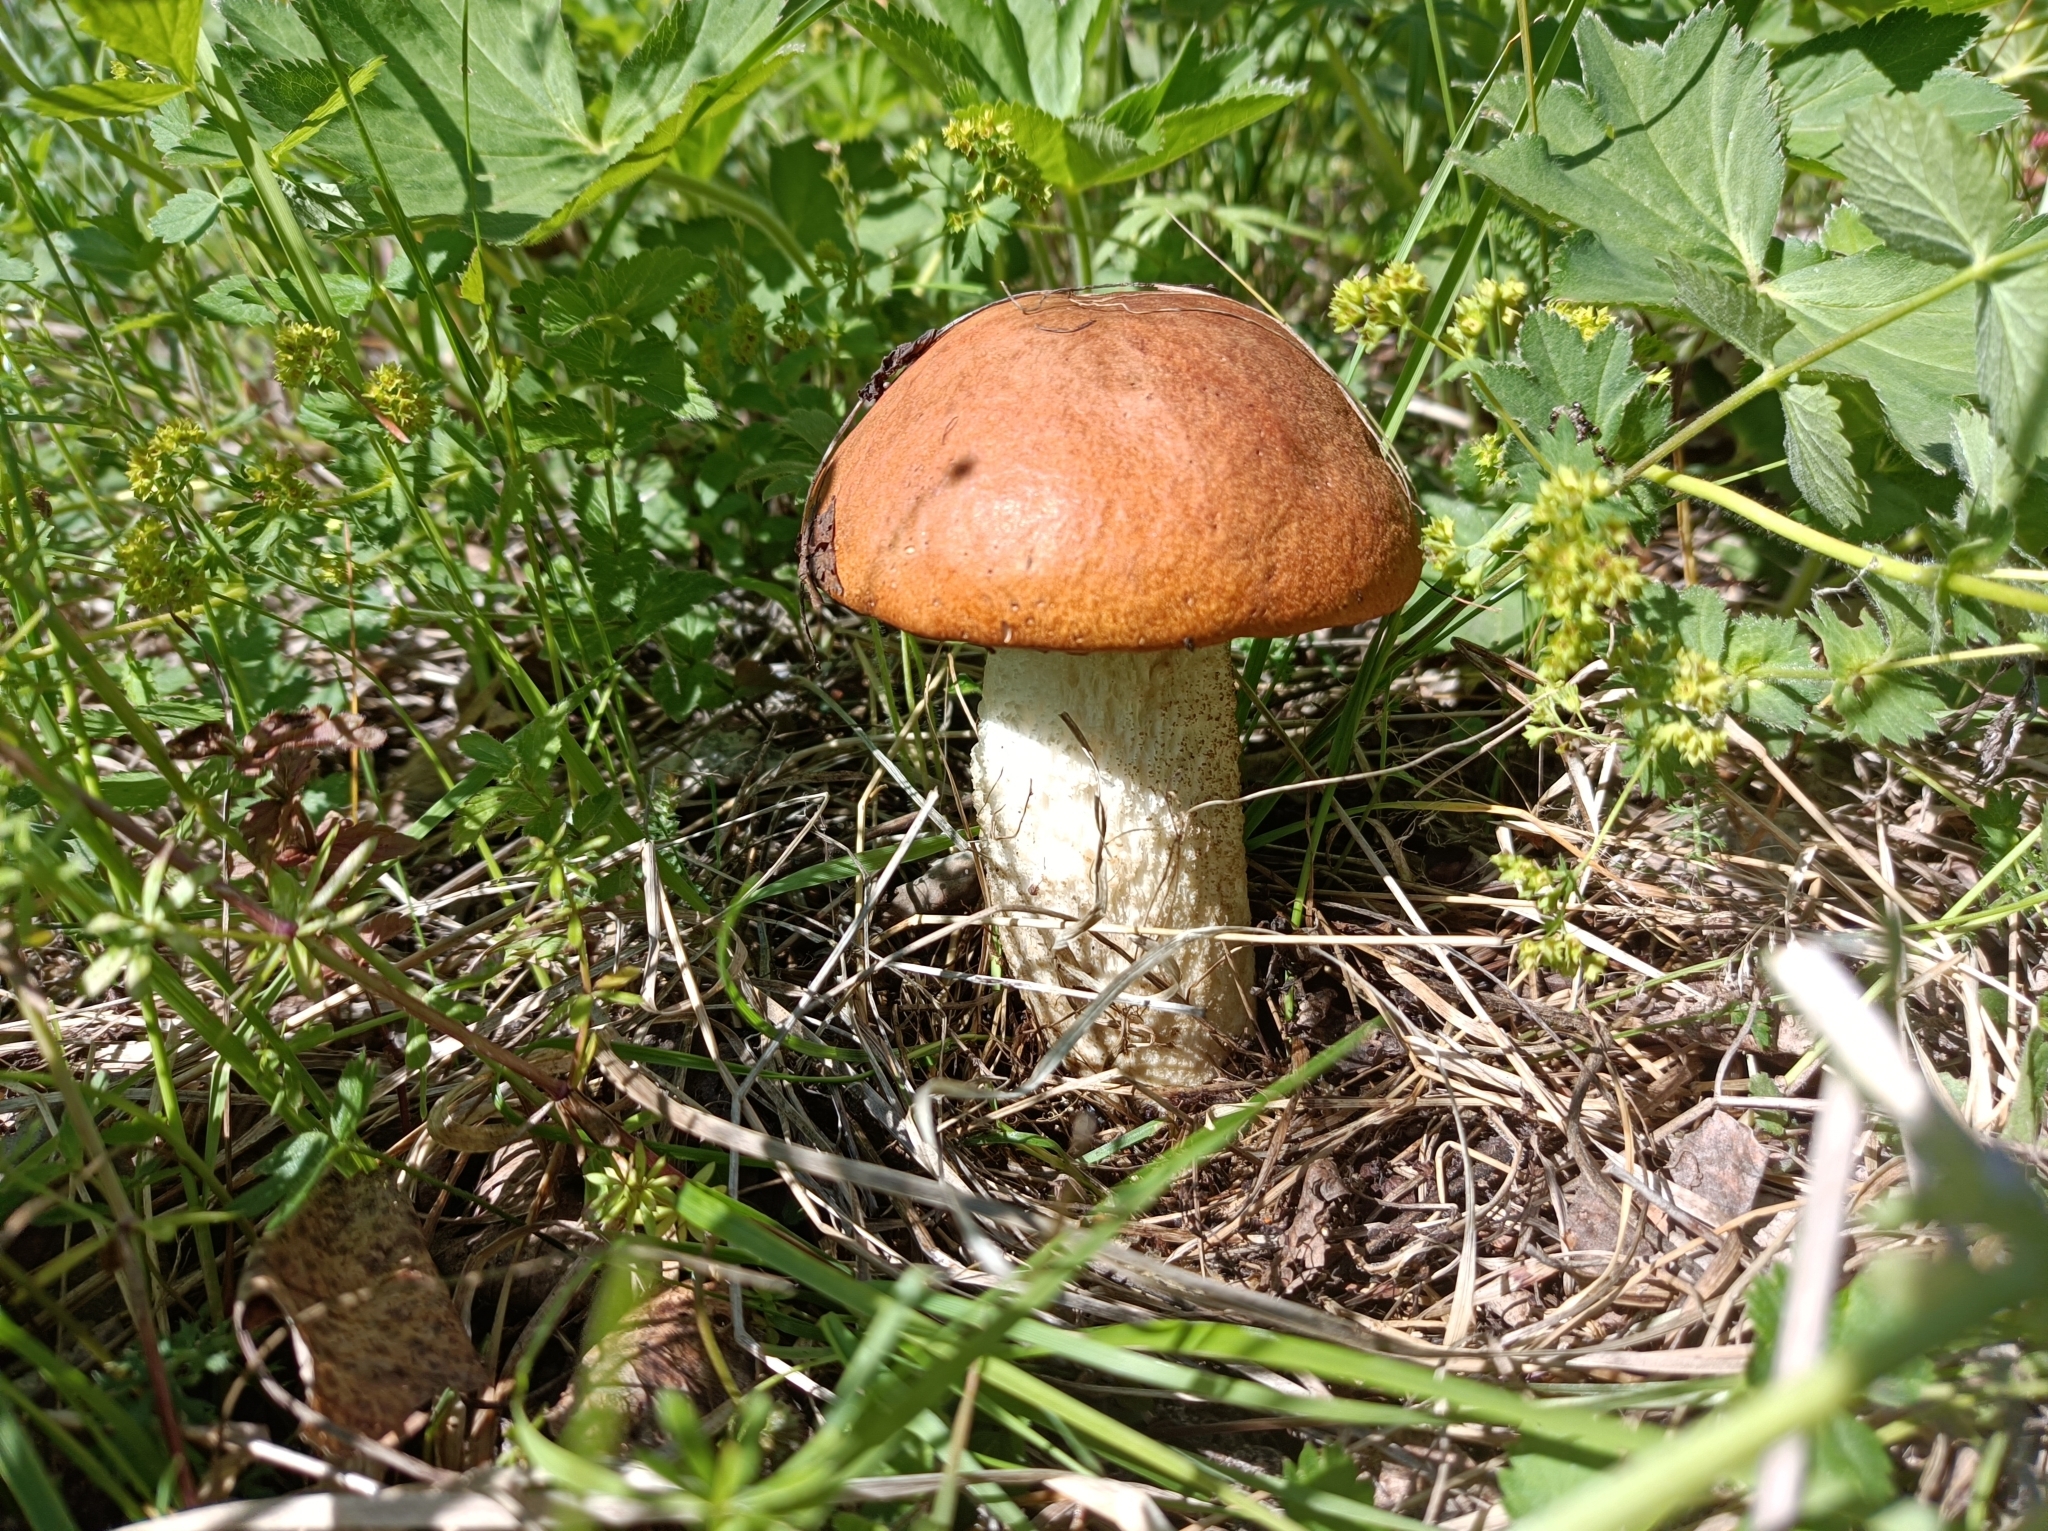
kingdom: Fungi
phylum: Basidiomycota
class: Agaricomycetes
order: Boletales
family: Boletaceae
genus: Leccinum
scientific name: Leccinum albostipitatum
